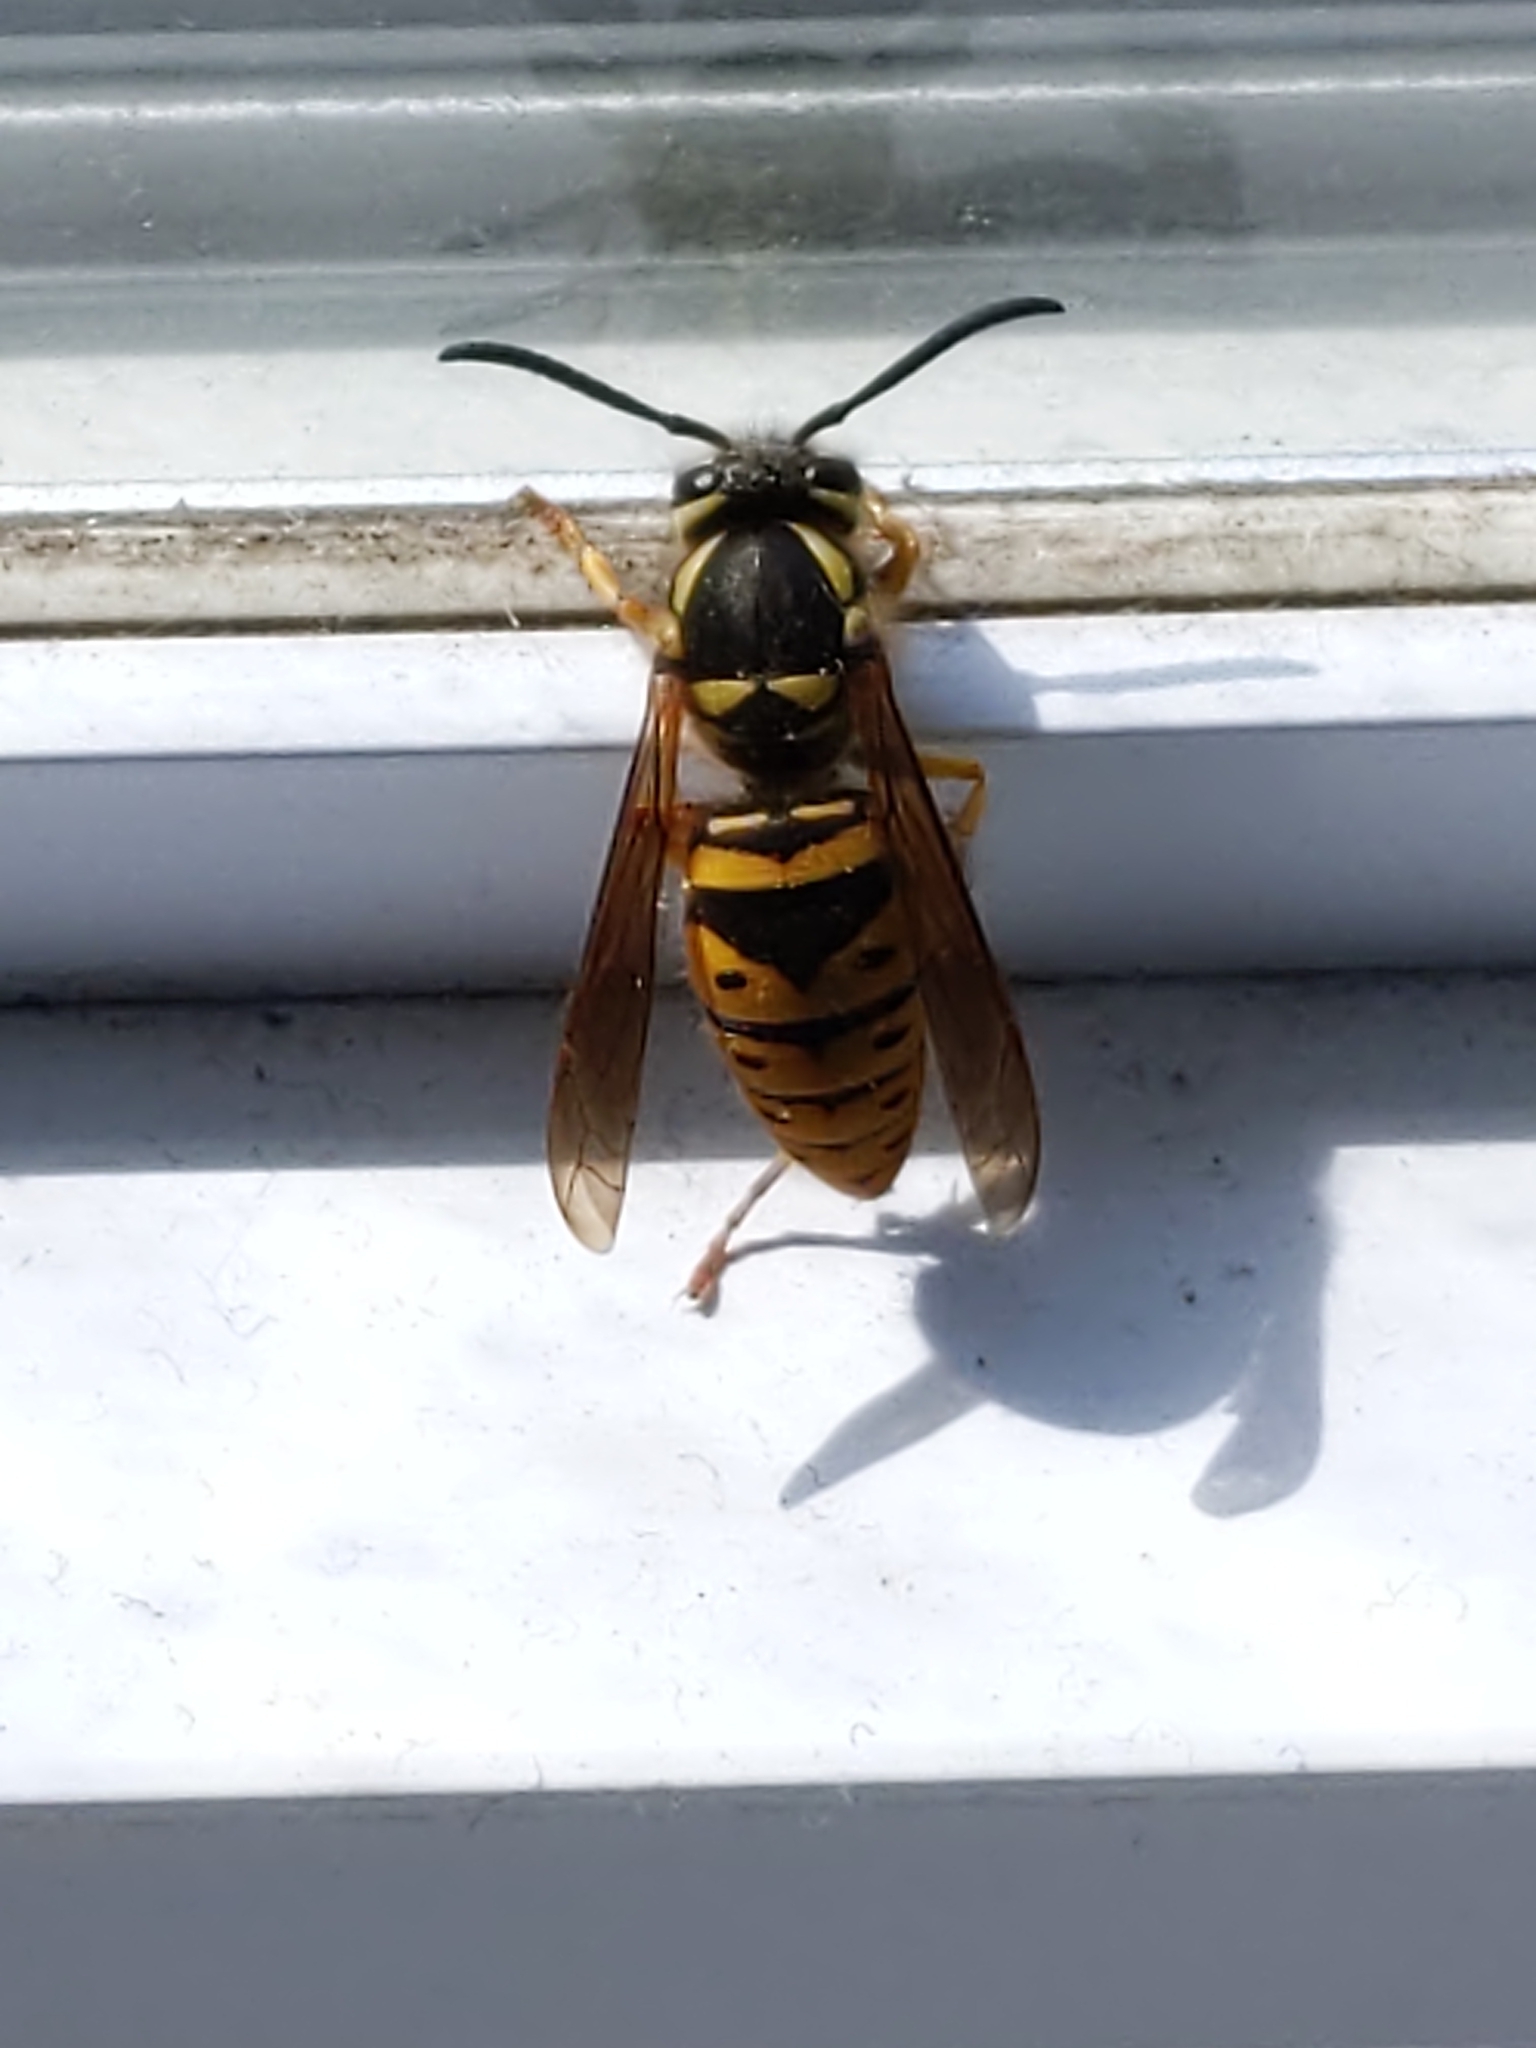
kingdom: Animalia
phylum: Arthropoda
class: Insecta
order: Hymenoptera
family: Vespidae
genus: Vespula
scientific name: Vespula maculifrons
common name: Eastern yellowjacket
